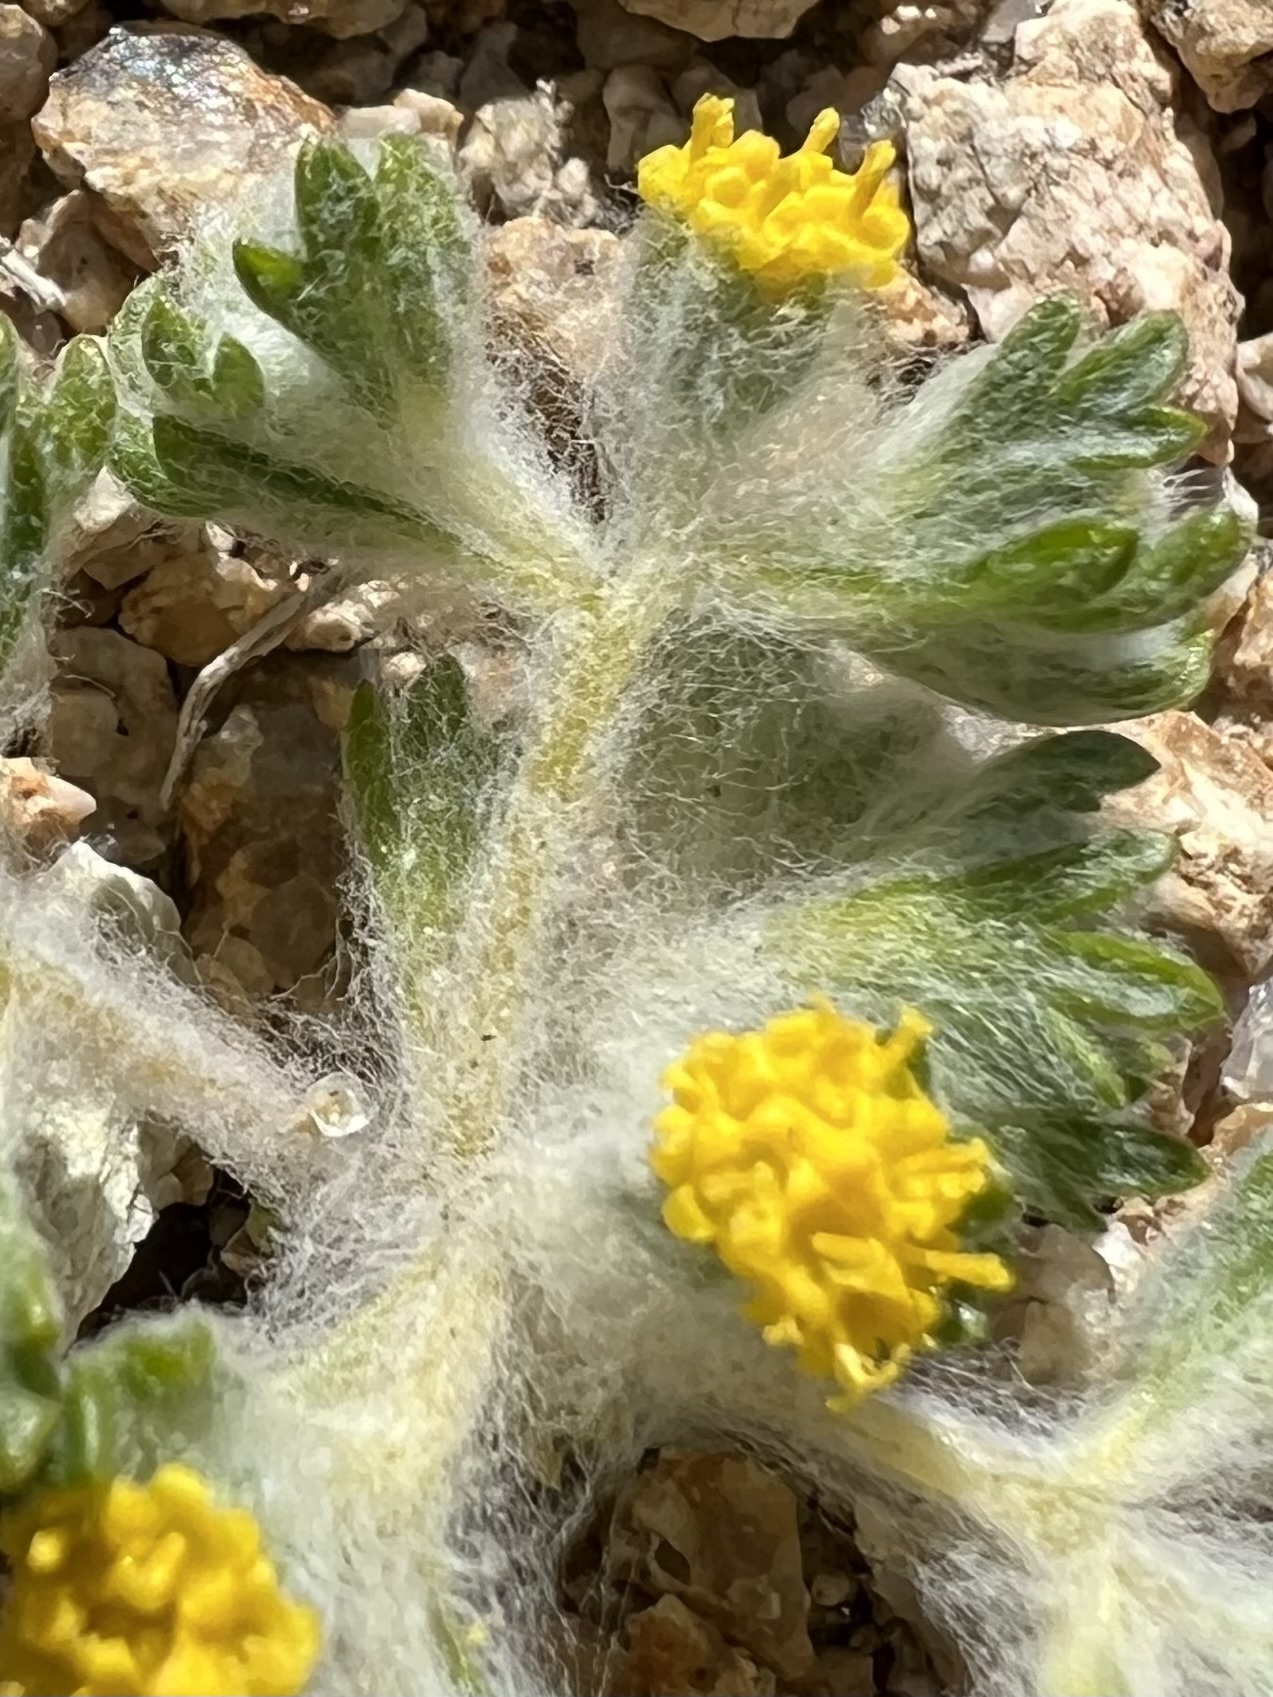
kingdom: Plantae
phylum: Tracheophyta
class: Magnoliopsida
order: Asterales
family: Asteraceae
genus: Eriophyllum
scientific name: Eriophyllum pringlei
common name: Pringle's woolly-sunflower
